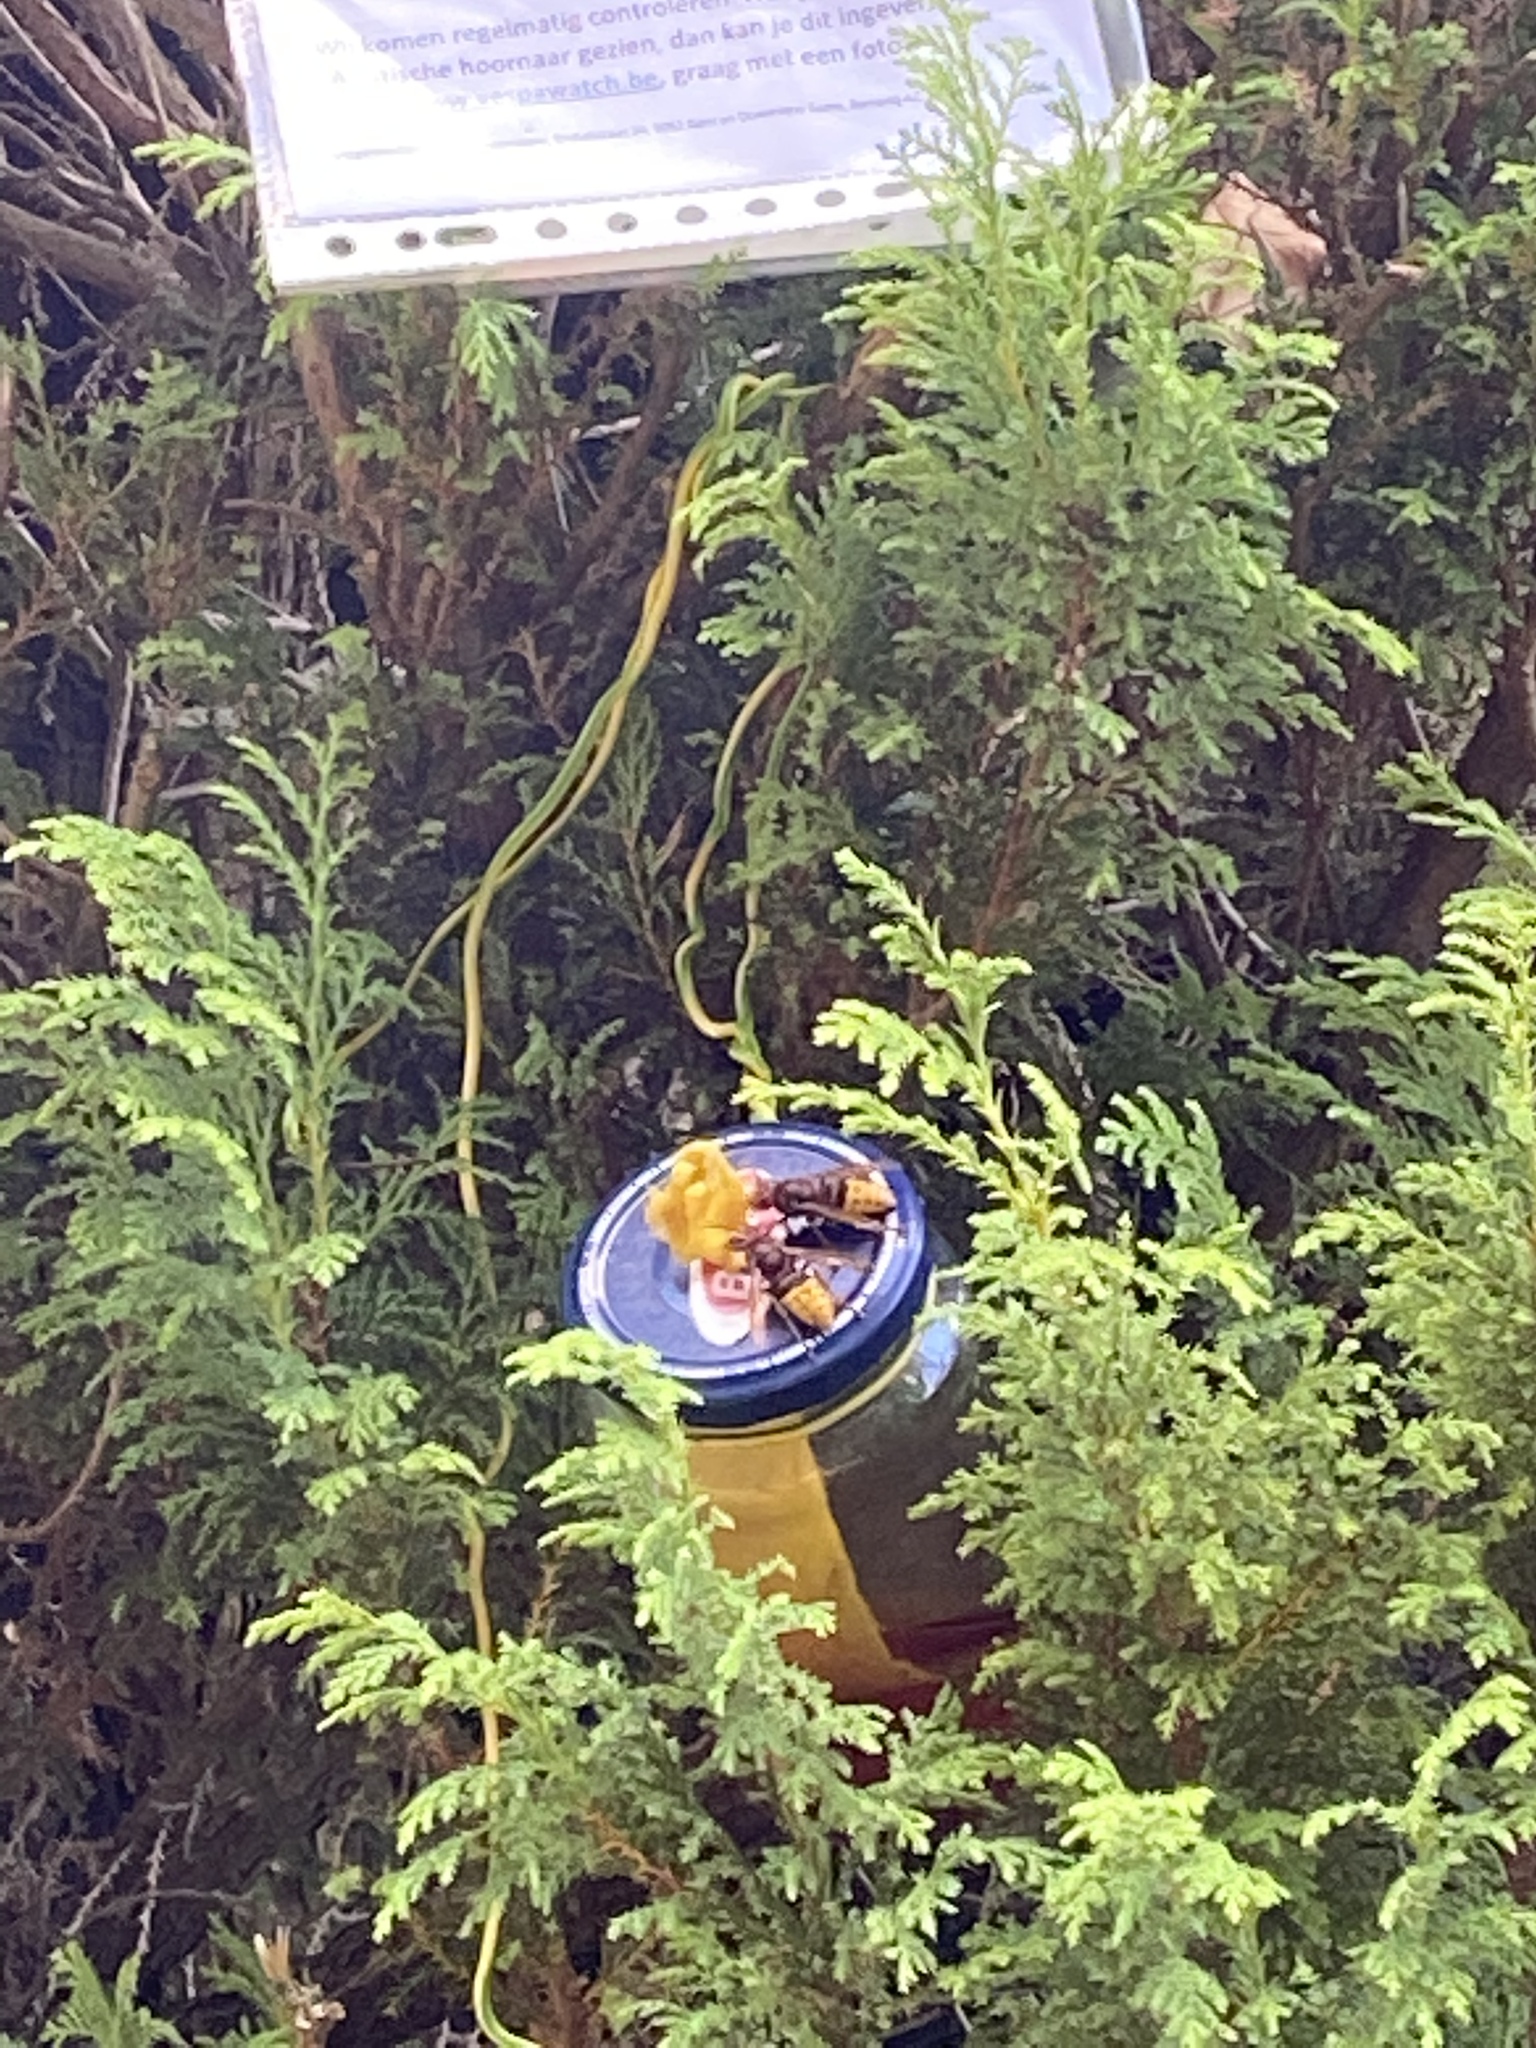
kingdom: Animalia
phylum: Arthropoda
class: Insecta
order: Hymenoptera
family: Vespidae
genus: Vespa
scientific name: Vespa crabro
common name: Hornet
